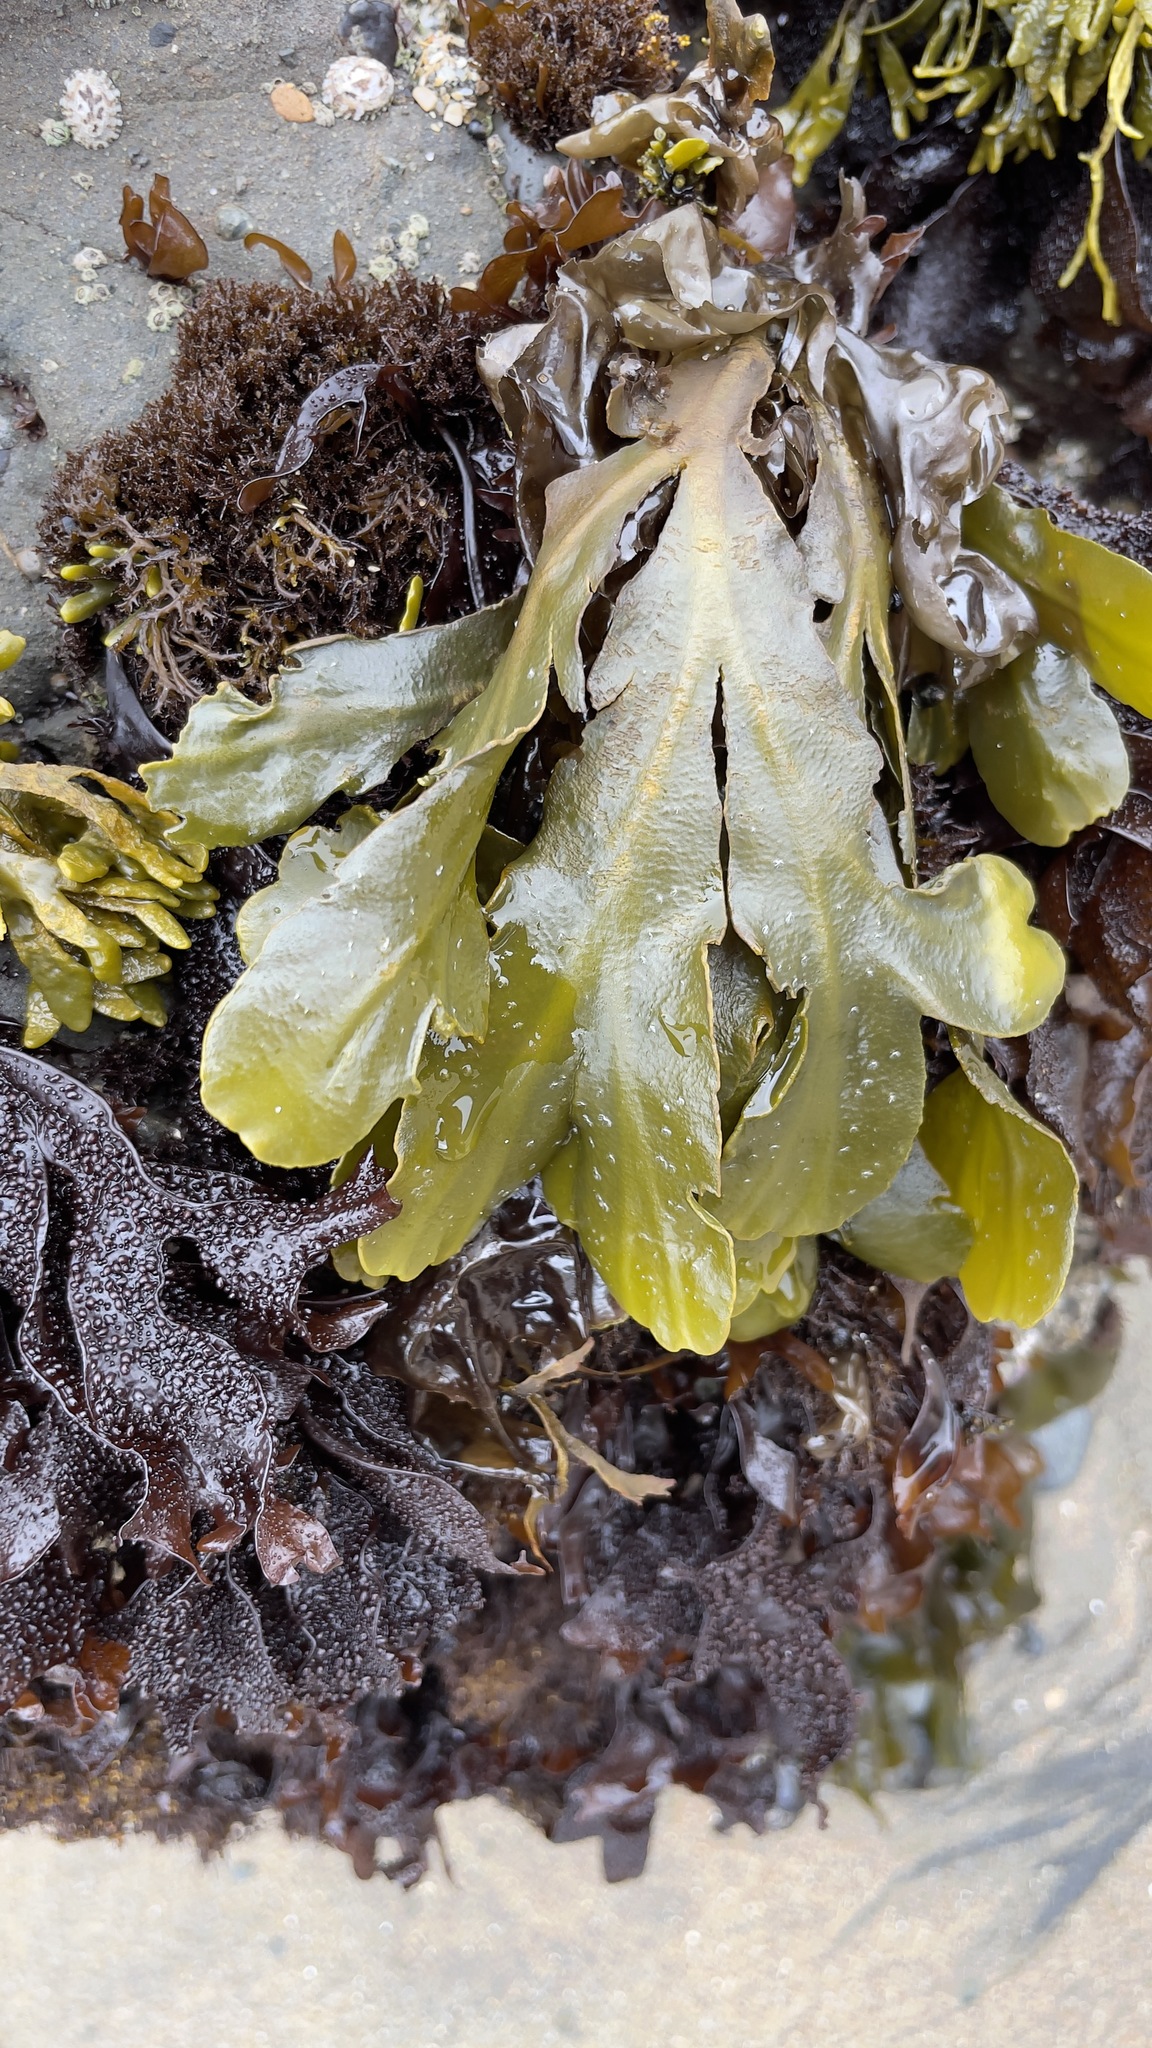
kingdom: Chromista
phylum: Ochrophyta
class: Phaeophyceae
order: Fucales
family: Fucaceae
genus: Fucus
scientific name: Fucus distichus
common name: Rockweed
